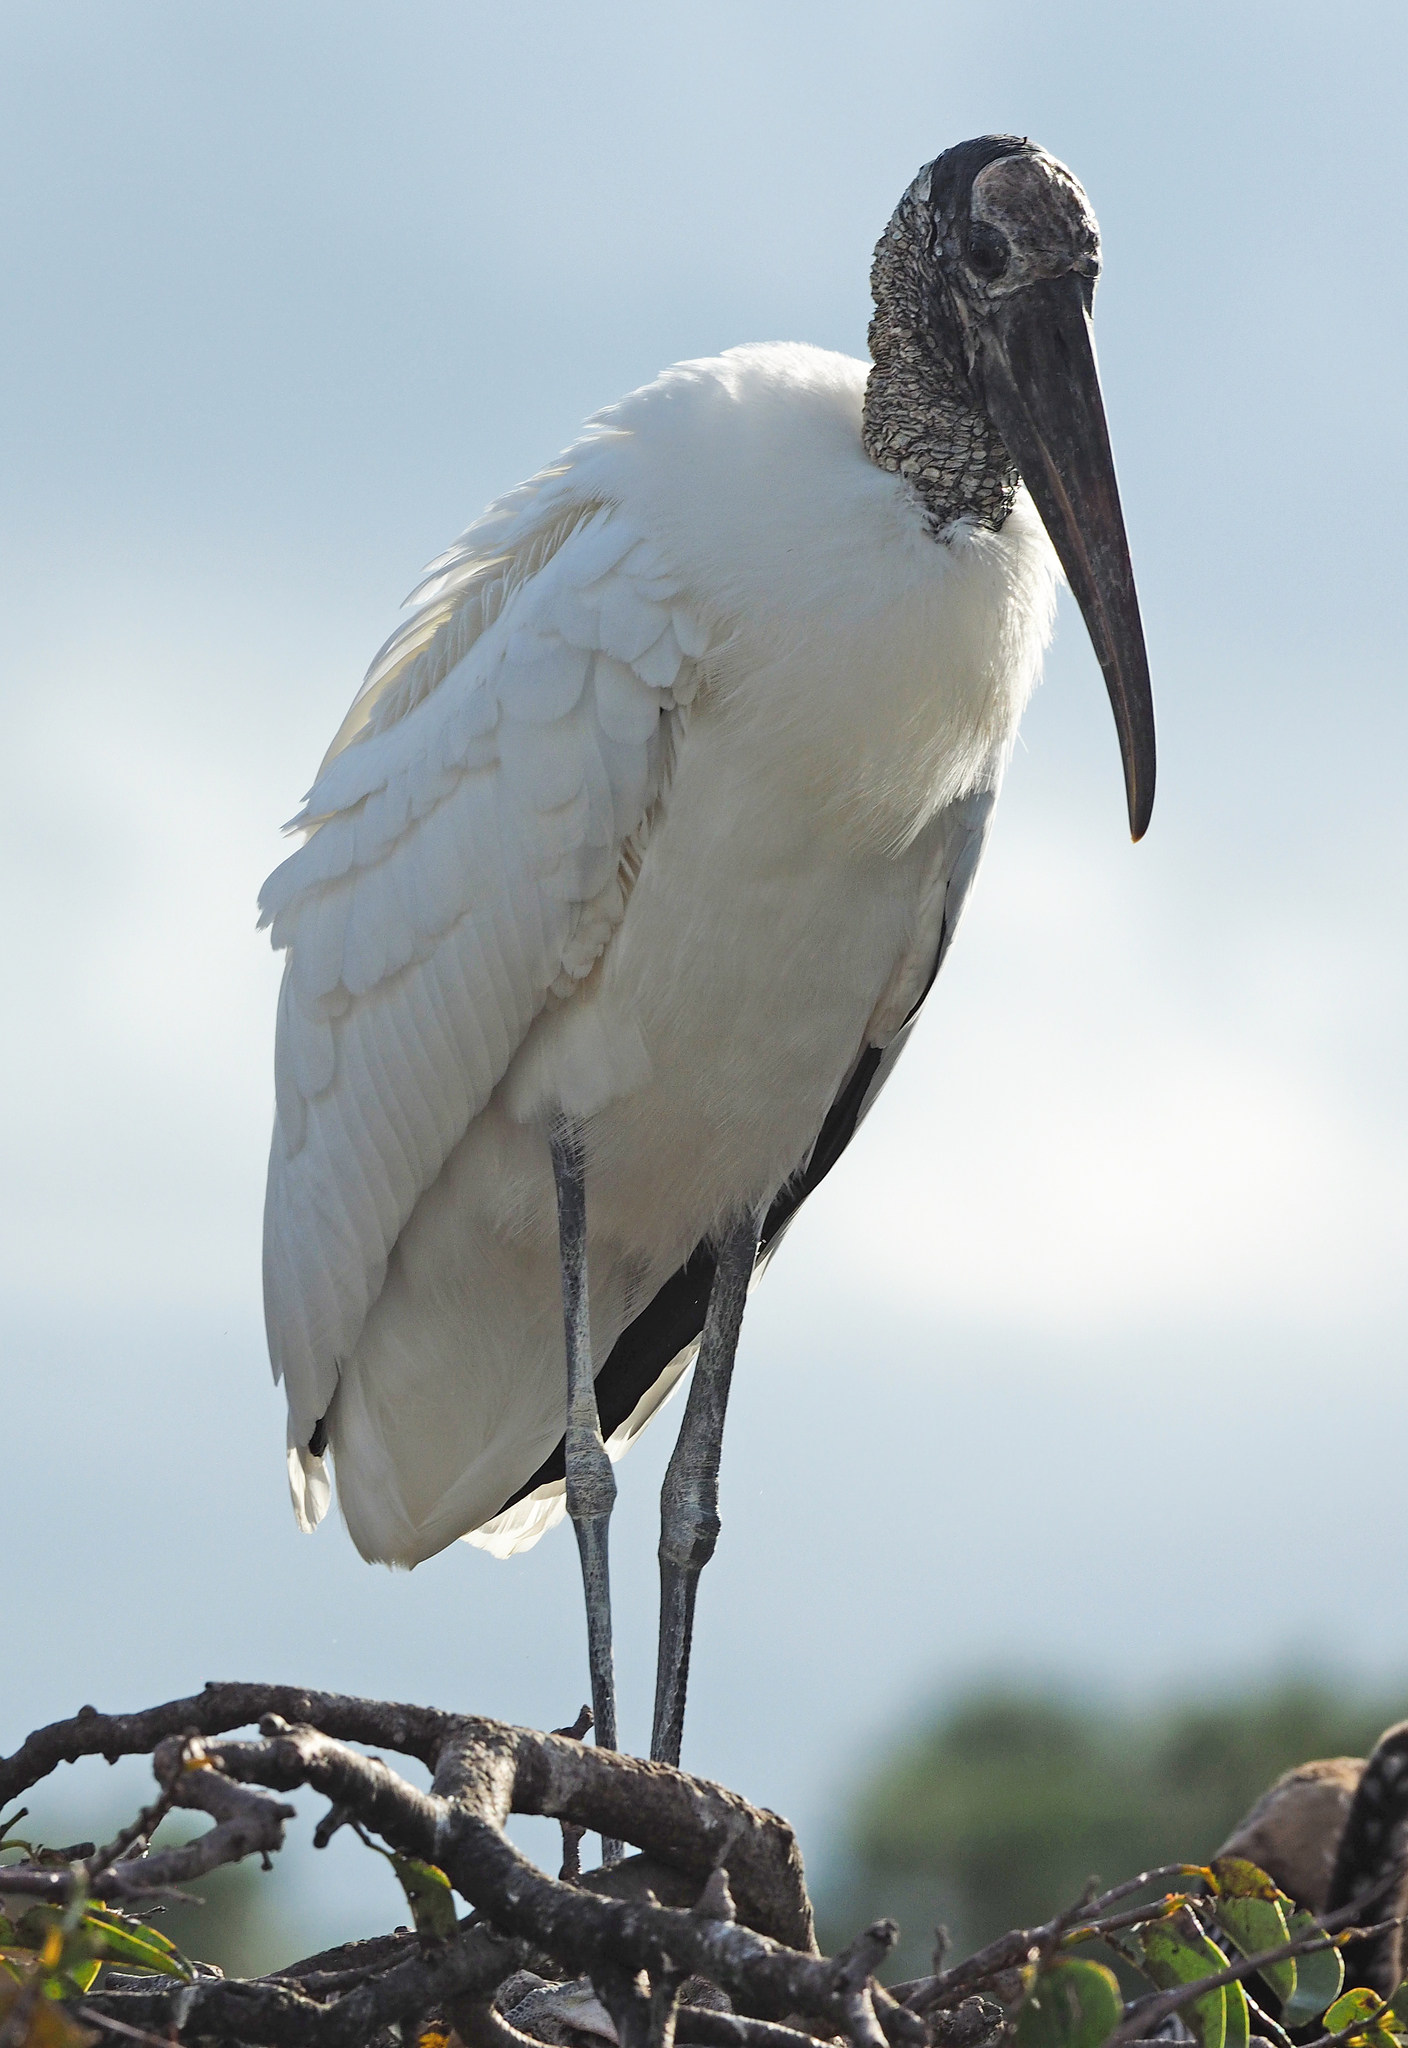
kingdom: Animalia
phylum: Chordata
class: Aves
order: Ciconiiformes
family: Ciconiidae
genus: Mycteria
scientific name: Mycteria americana
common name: Wood stork
